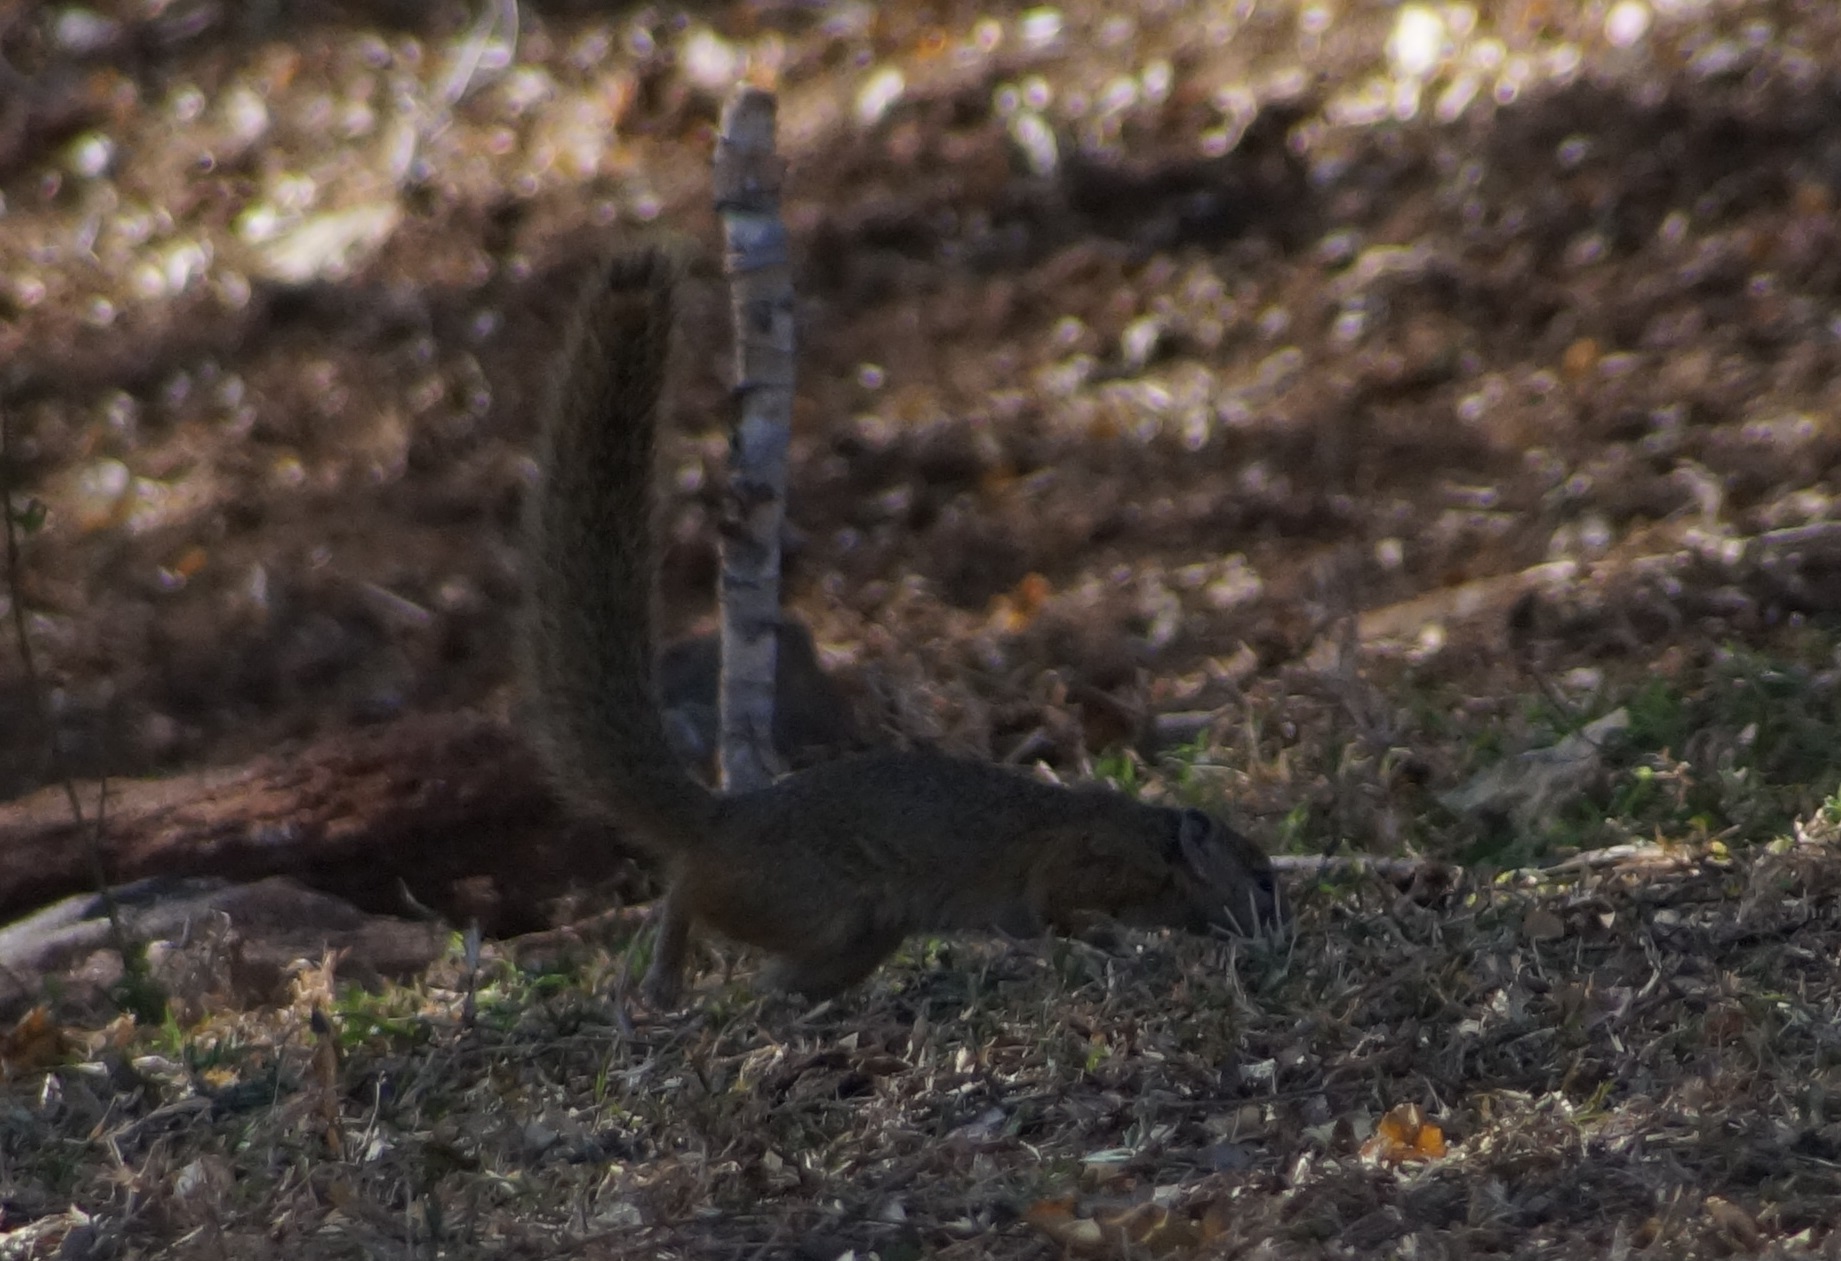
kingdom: Animalia
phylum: Chordata
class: Mammalia
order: Rodentia
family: Sciuridae
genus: Paraxerus
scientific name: Paraxerus cepapi
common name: Smith's bush squirrel
